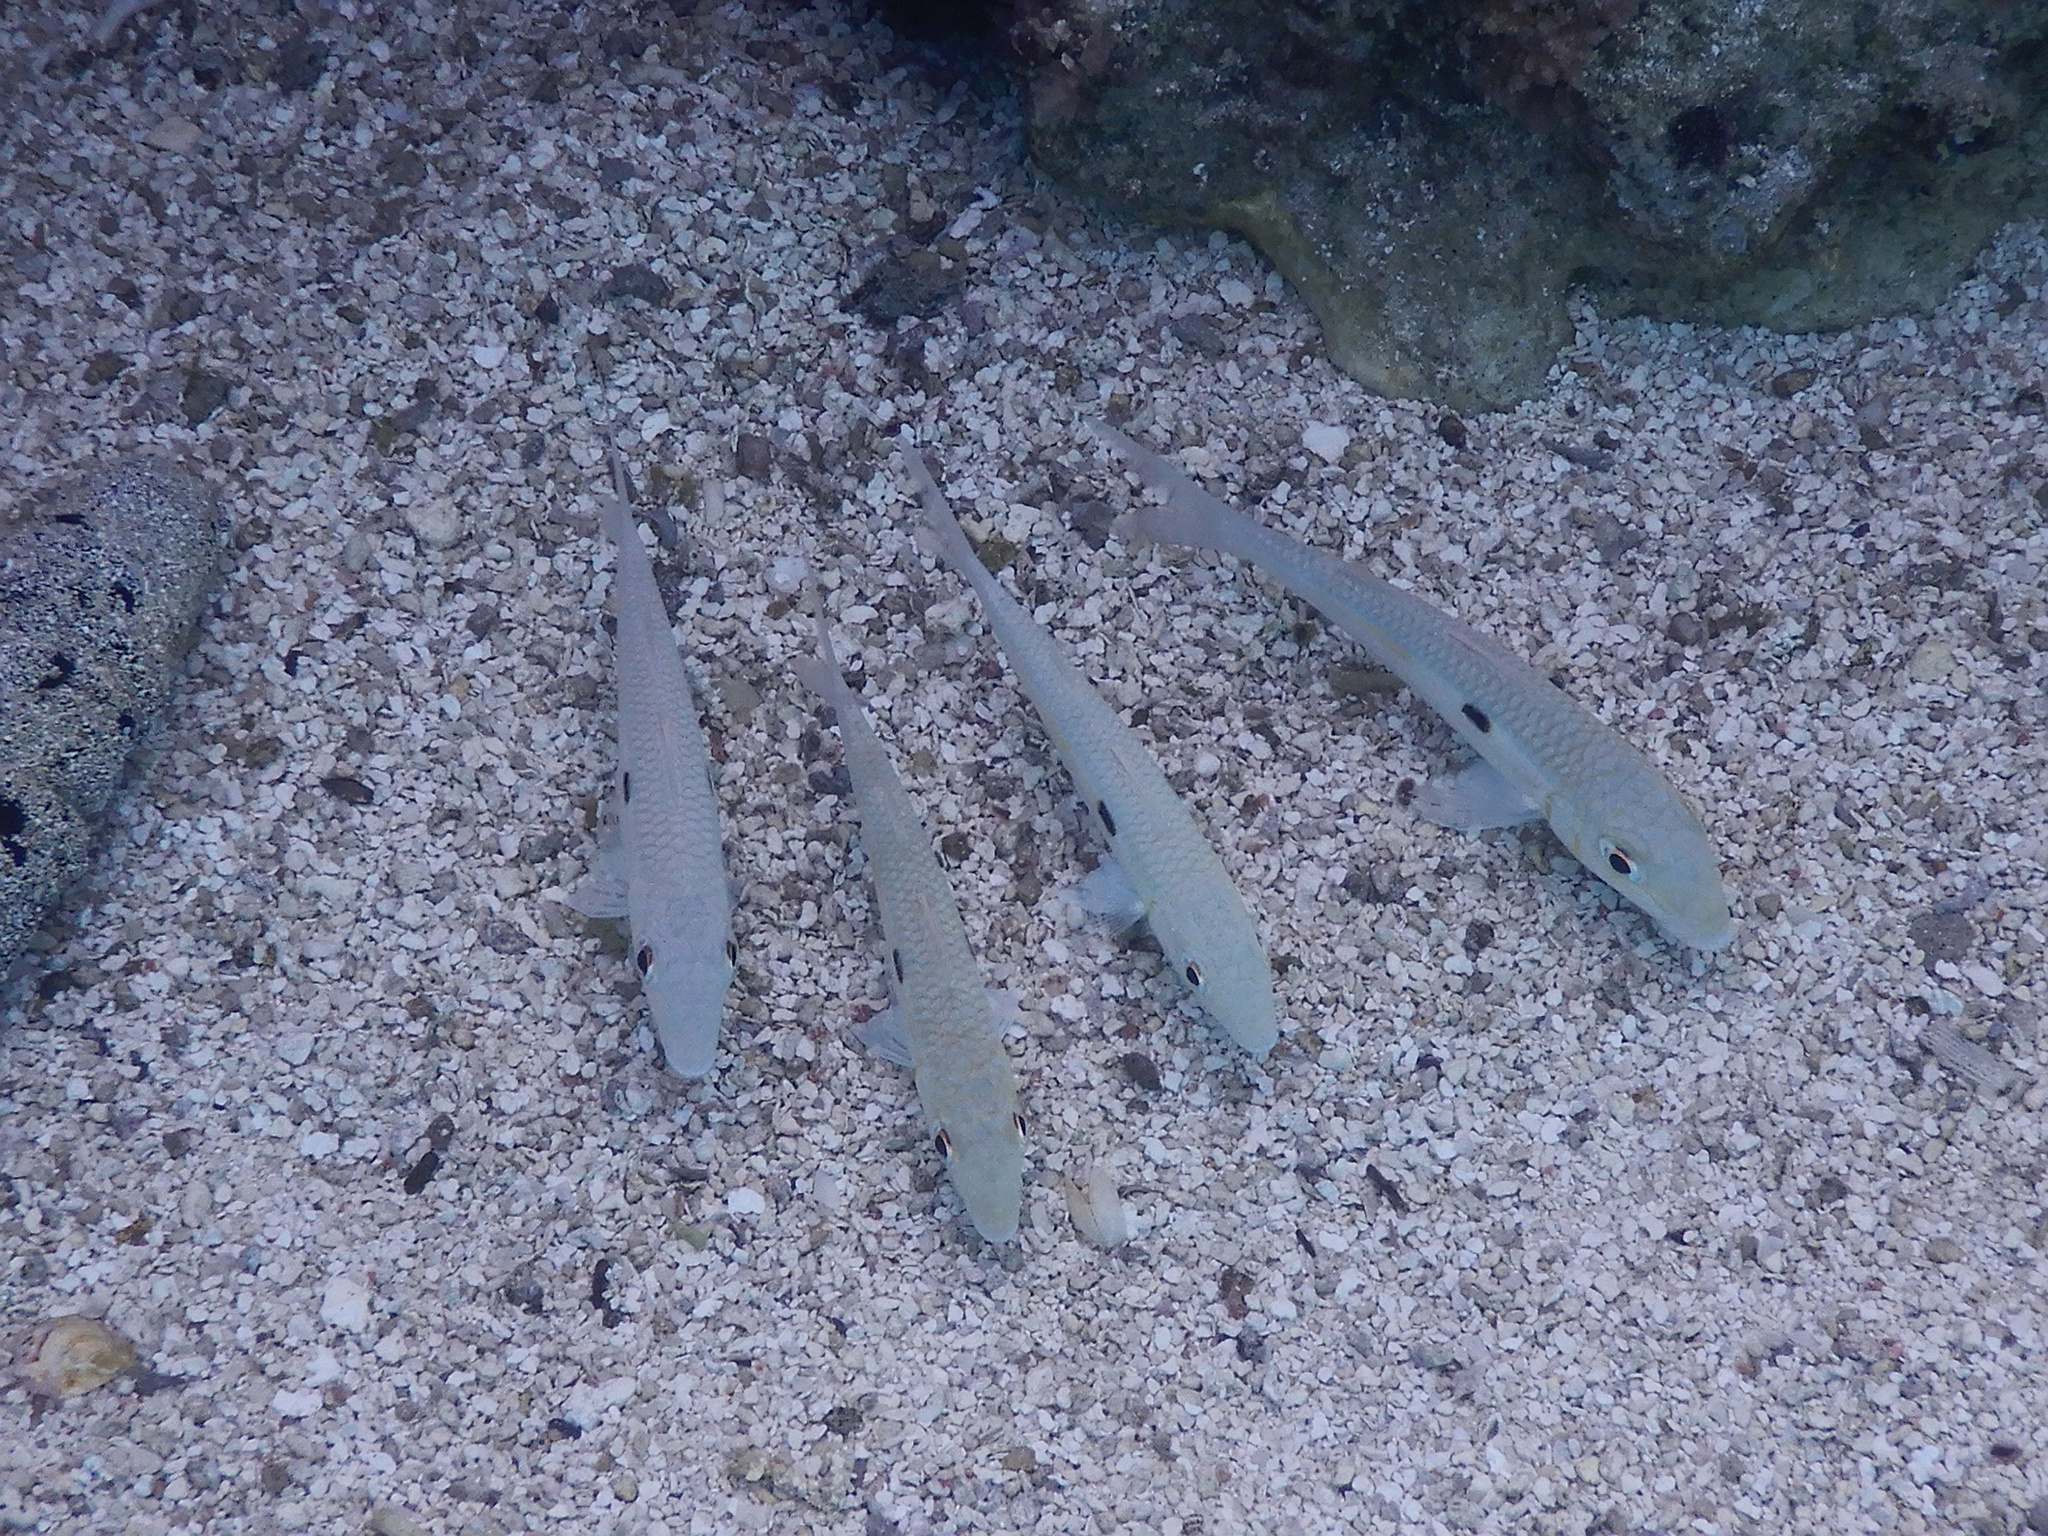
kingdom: Animalia
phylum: Chordata
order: Perciformes
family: Mullidae
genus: Mulloidichthys
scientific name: Mulloidichthys flavolineatus
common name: Yellowstripe goatfish
